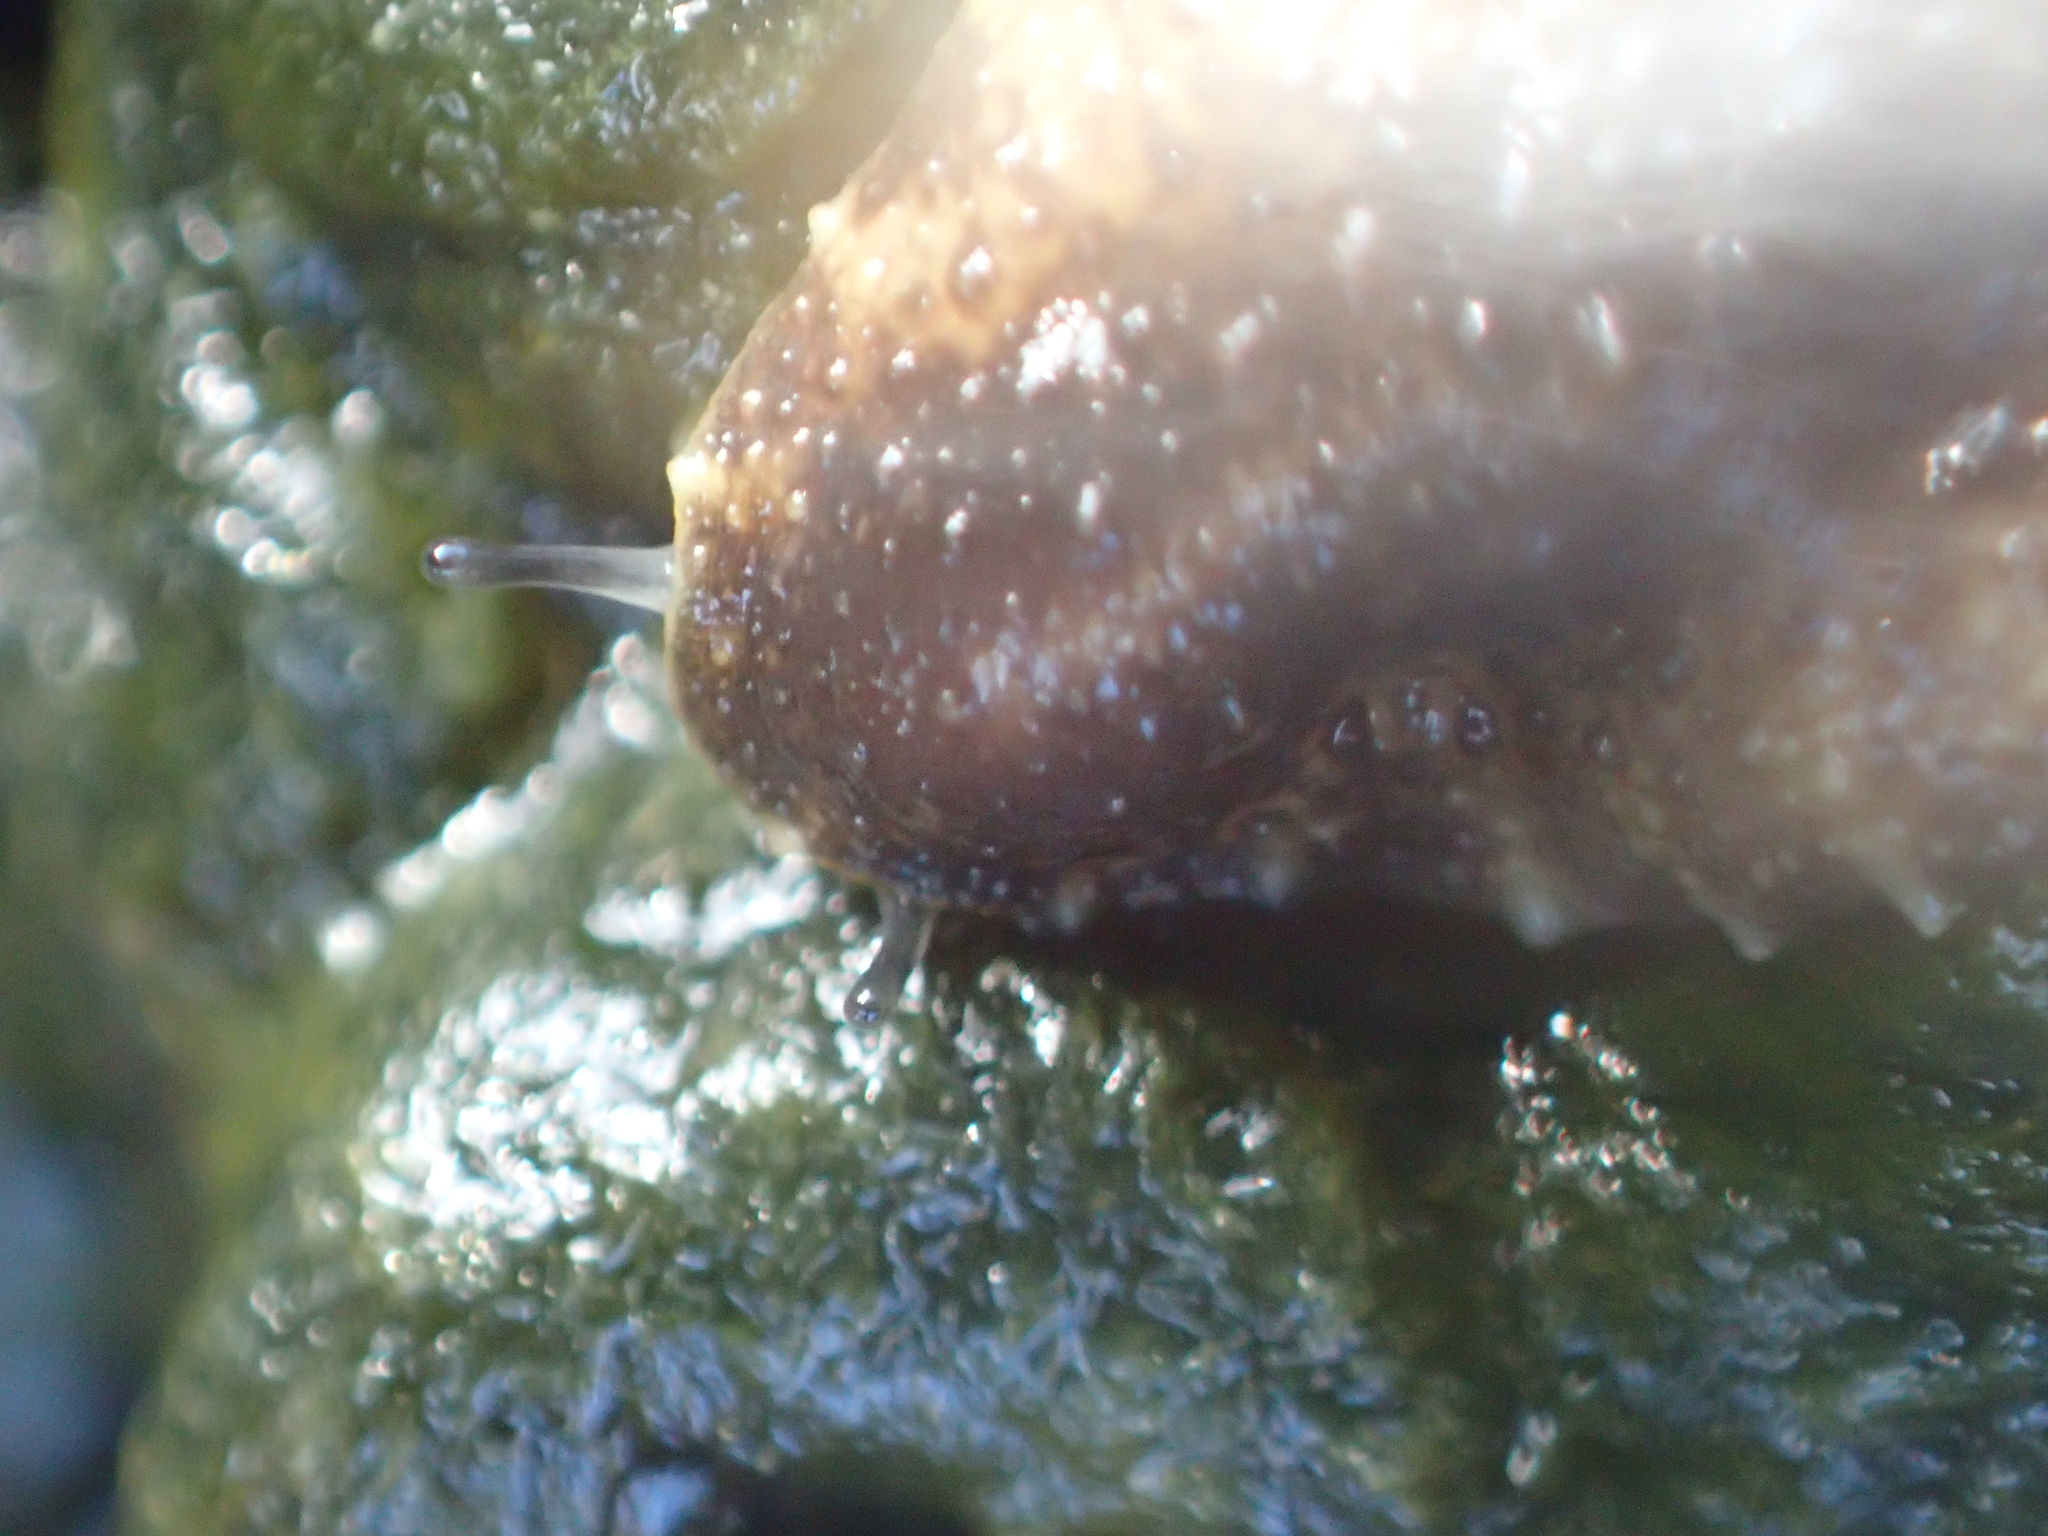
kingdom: Animalia
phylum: Mollusca
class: Gastropoda
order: Systellommatophora
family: Onchidiidae
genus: Onchidella
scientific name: Onchidella nigricans
